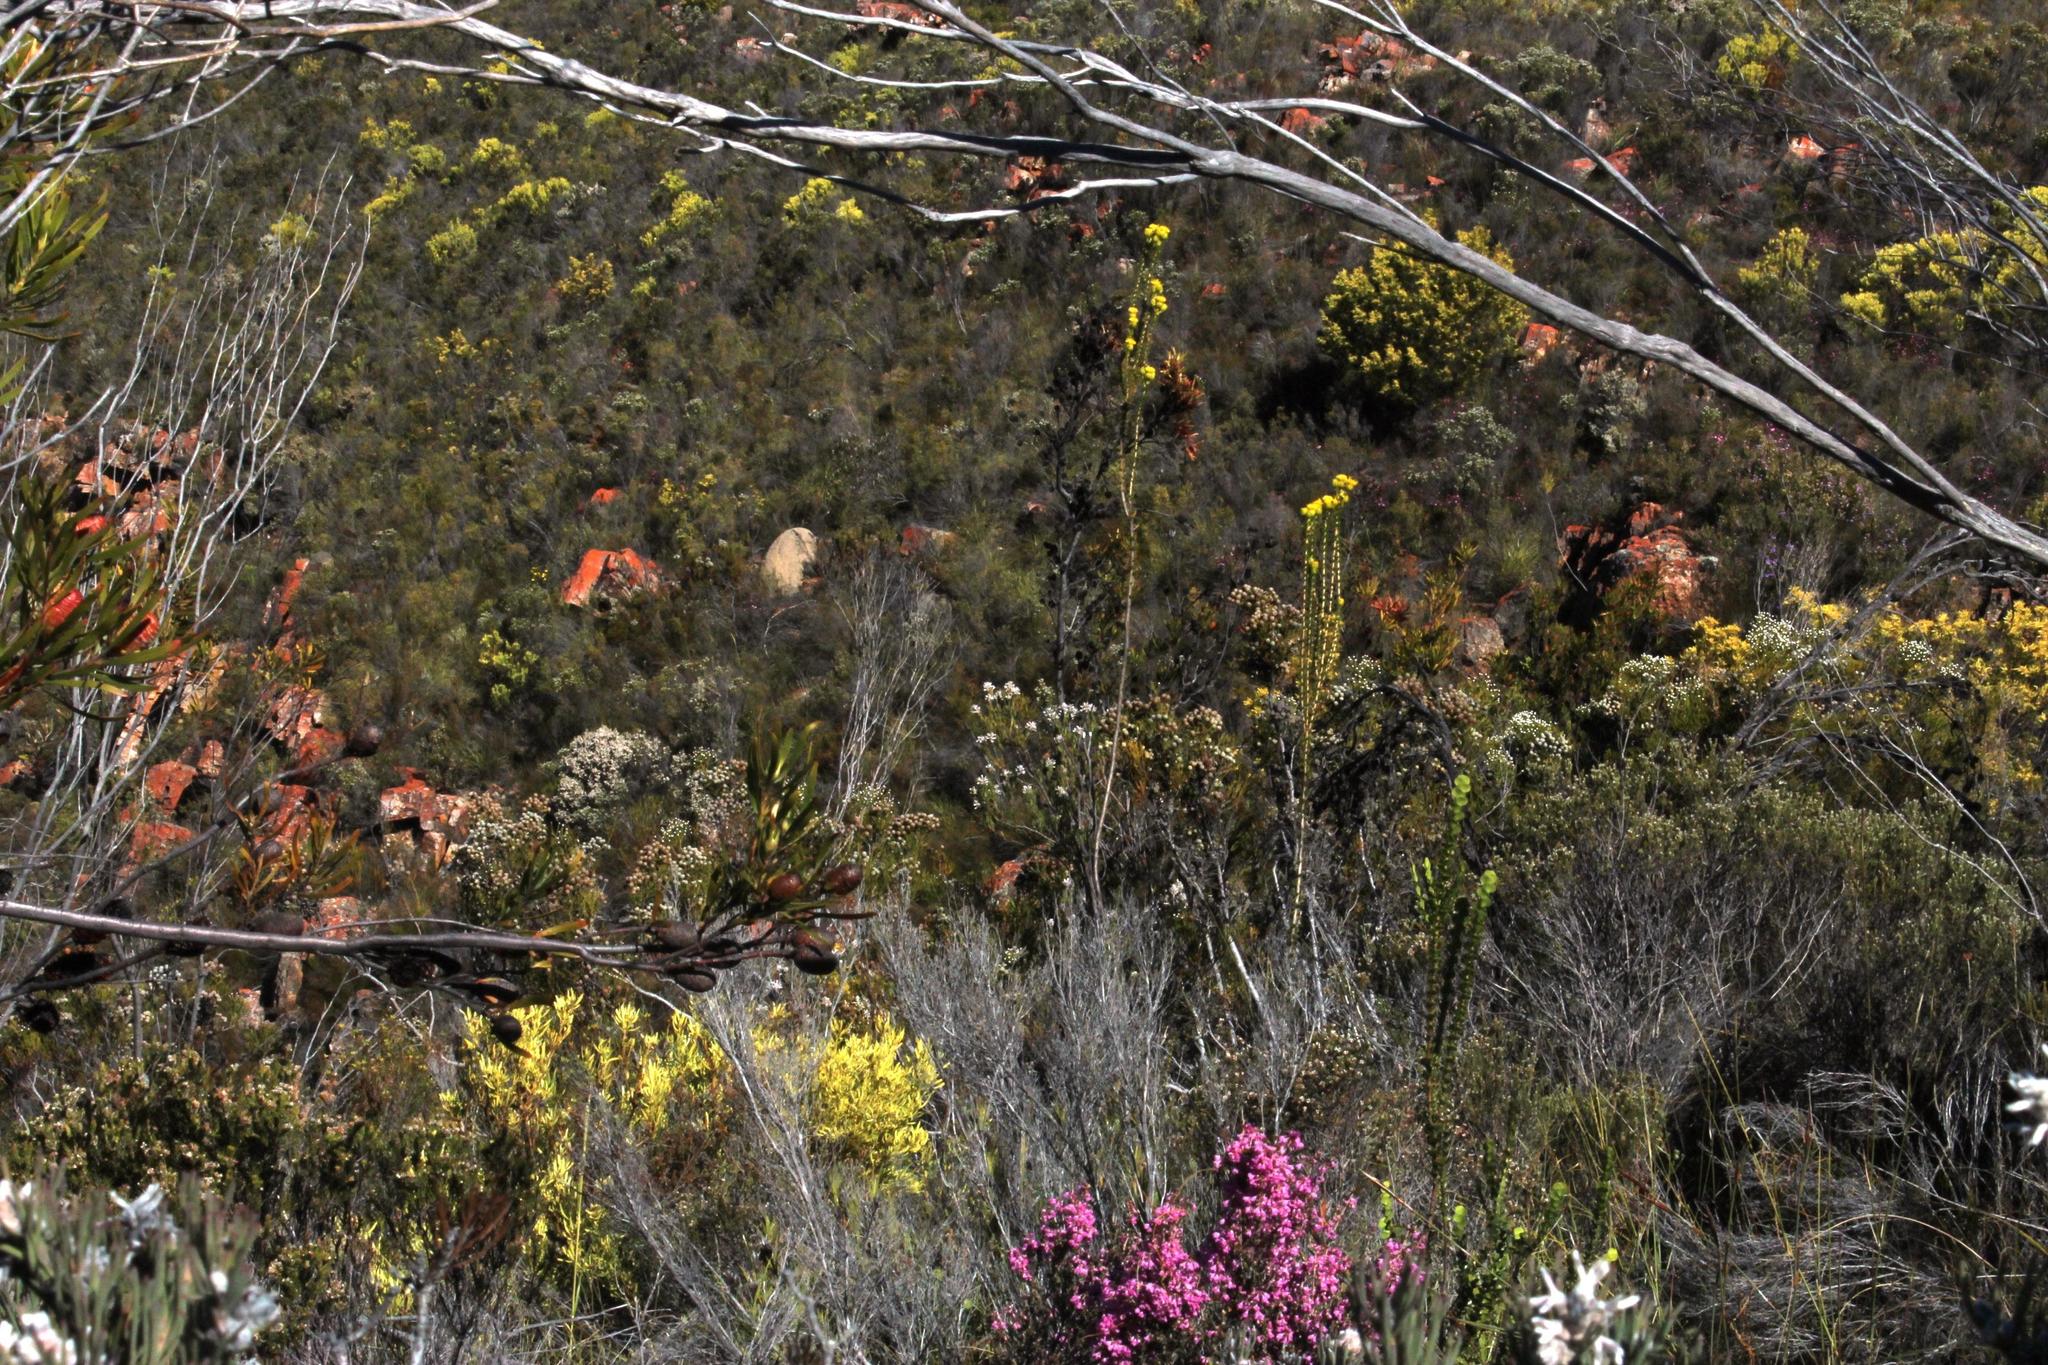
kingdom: Plantae
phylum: Tracheophyta
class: Magnoliopsida
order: Asterales
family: Asteraceae
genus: Oedera
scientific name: Oedera imbricata
